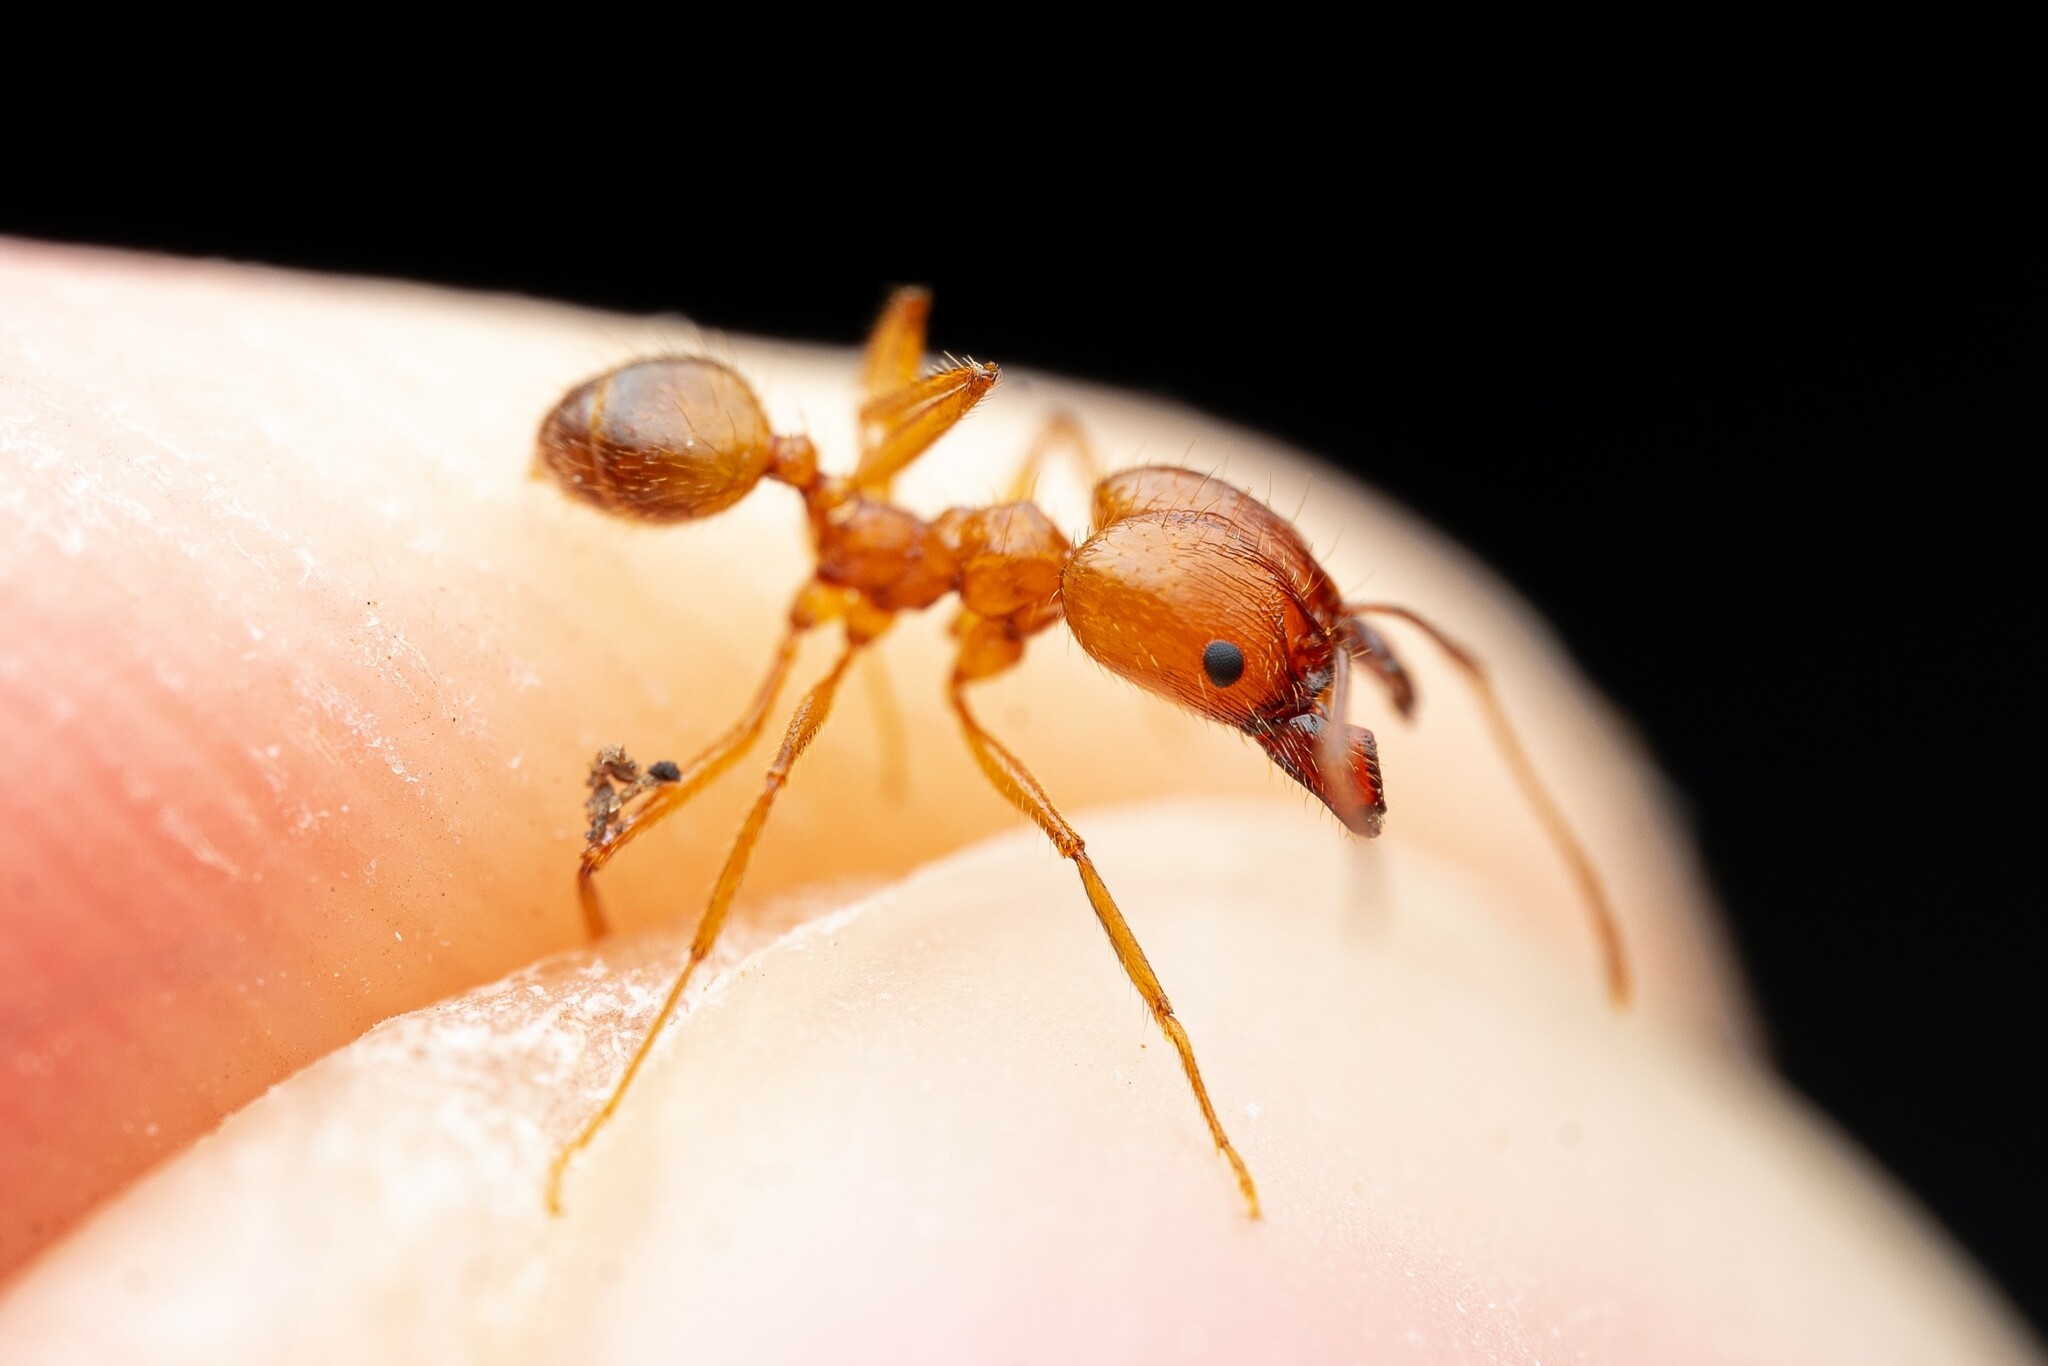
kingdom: Animalia
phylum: Arthropoda
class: Insecta
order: Hymenoptera
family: Formicidae
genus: Pheidole
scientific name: Pheidole desertorum
